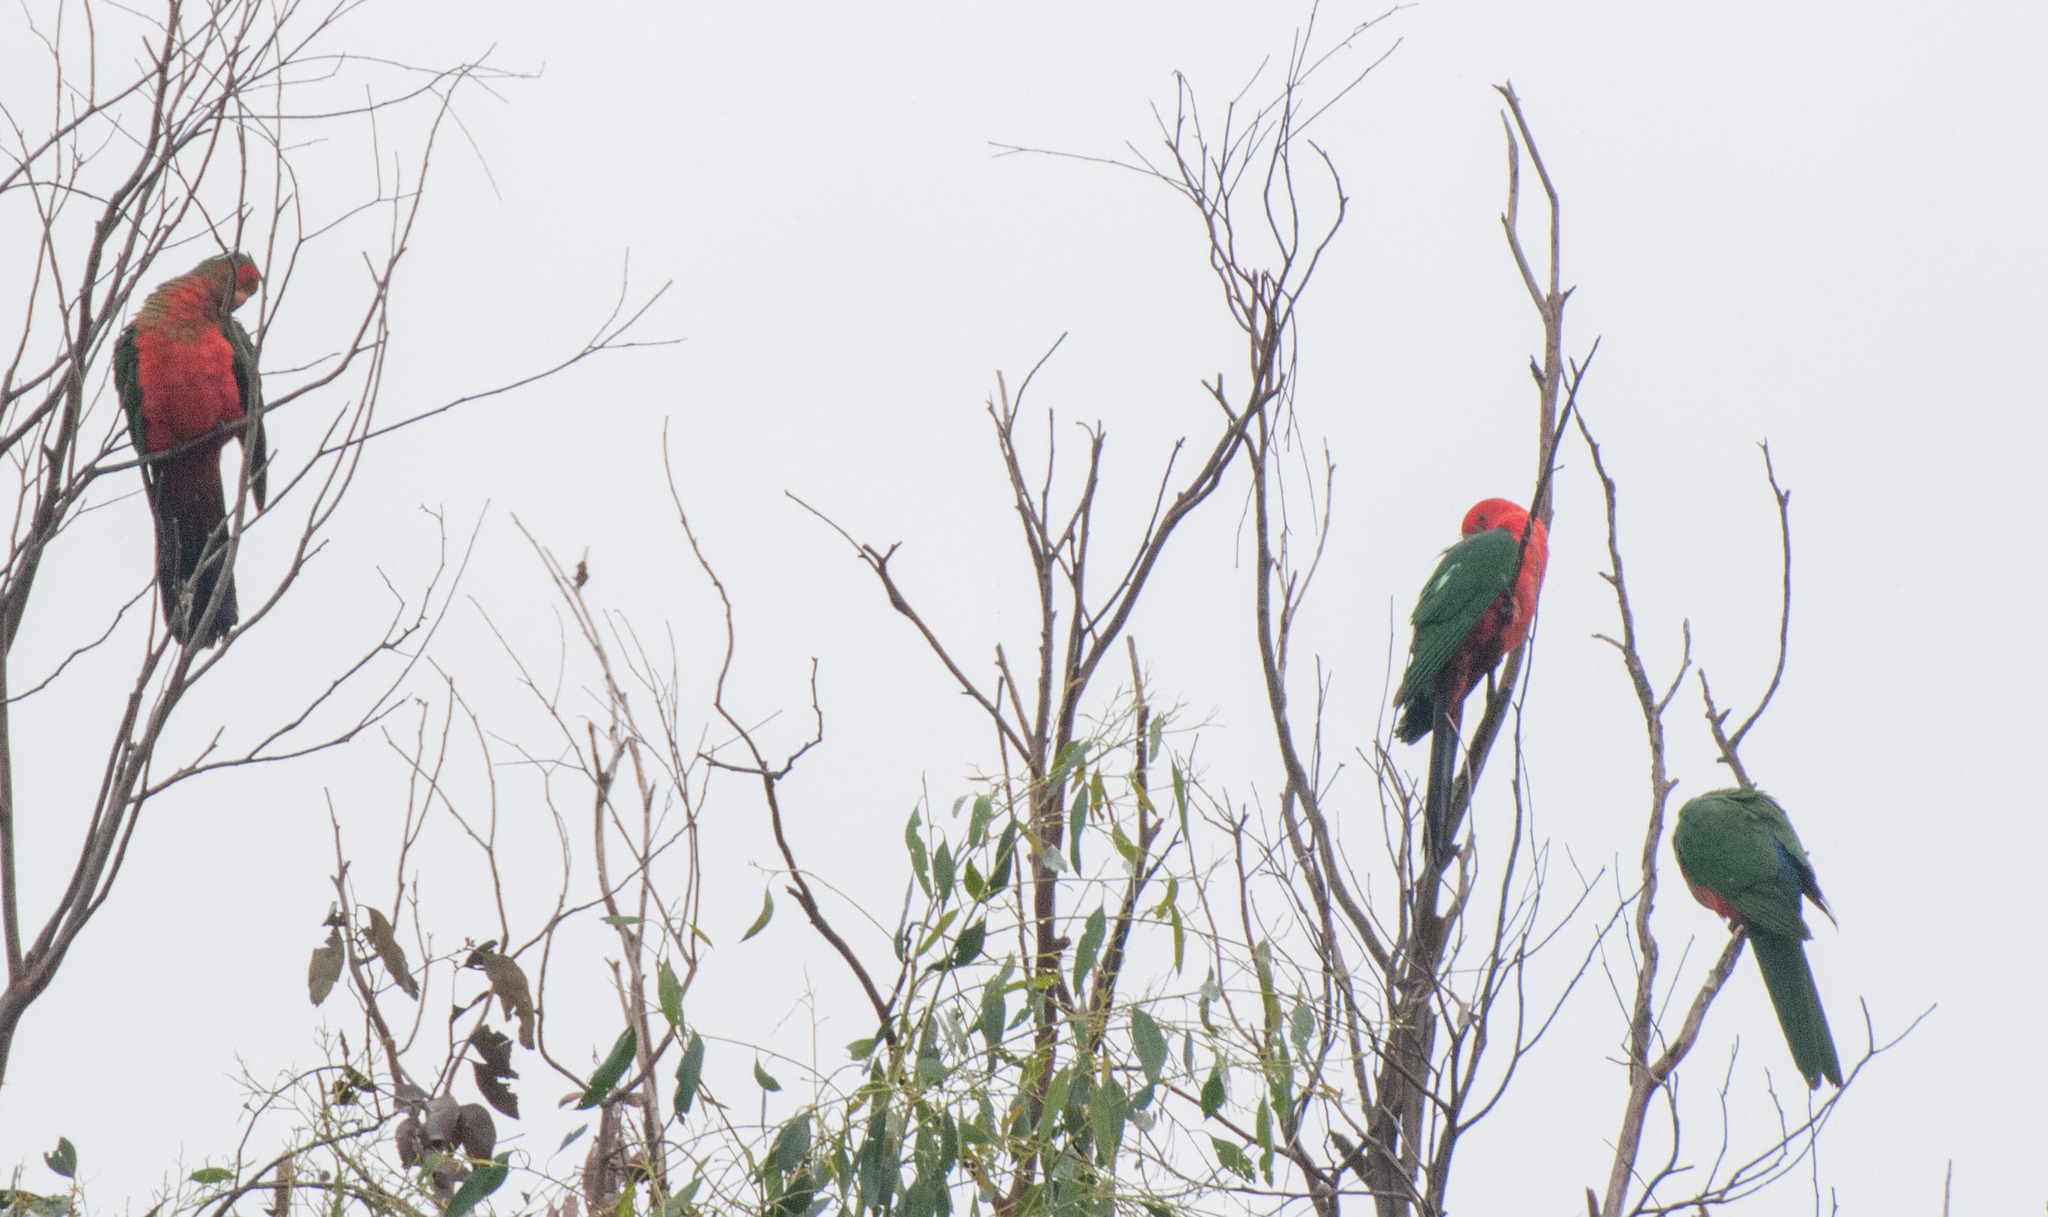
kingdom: Animalia
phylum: Chordata
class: Aves
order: Psittaciformes
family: Psittacidae
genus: Alisterus
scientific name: Alisterus scapularis
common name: Australian king parrot
